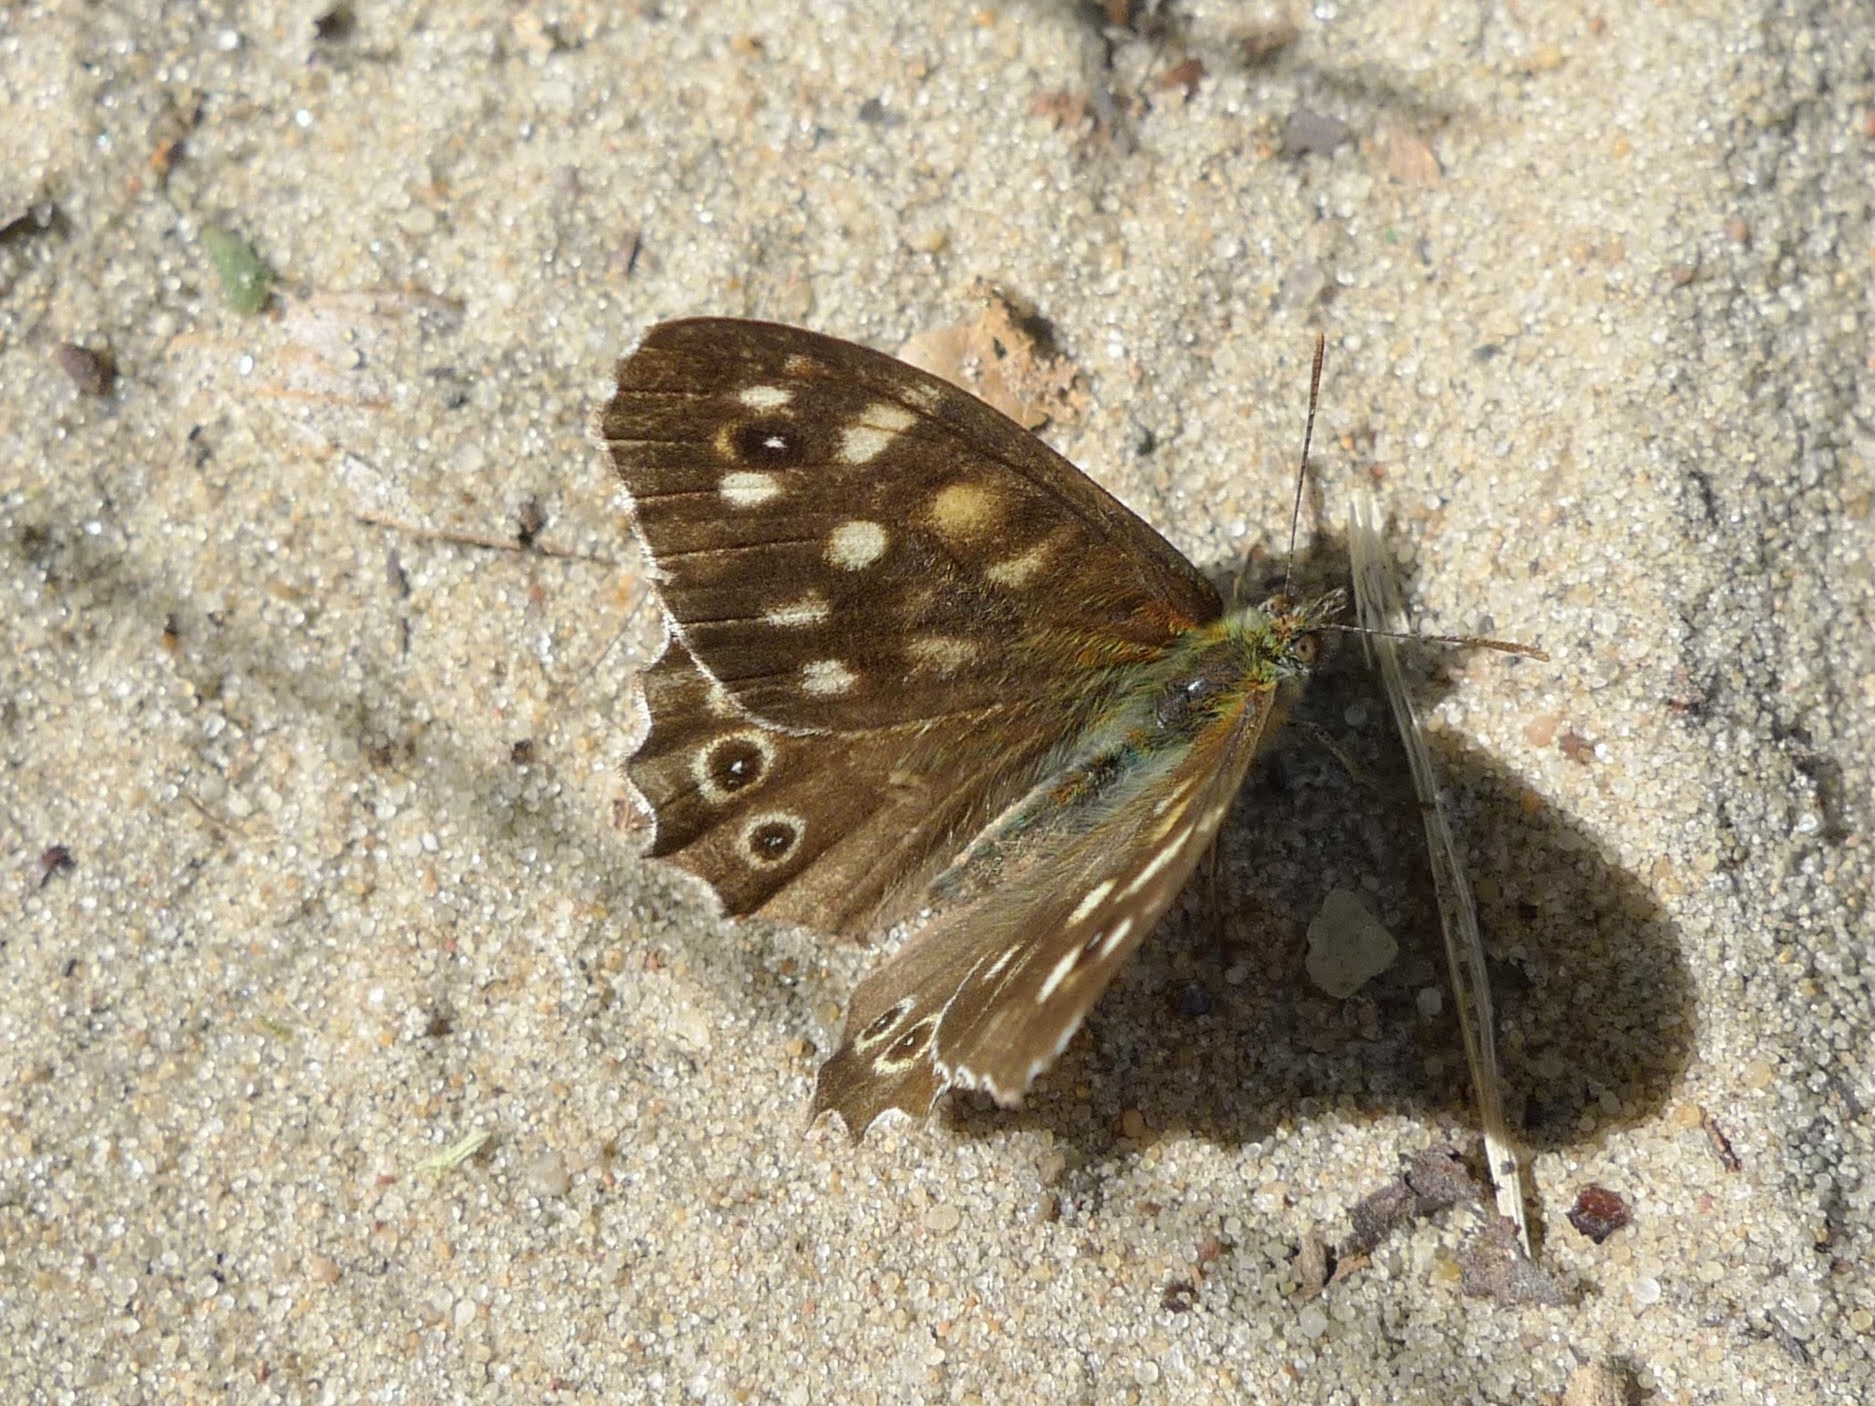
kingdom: Animalia
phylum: Arthropoda
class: Insecta
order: Lepidoptera
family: Nymphalidae
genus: Pararge
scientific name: Pararge aegeria
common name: Speckled wood
